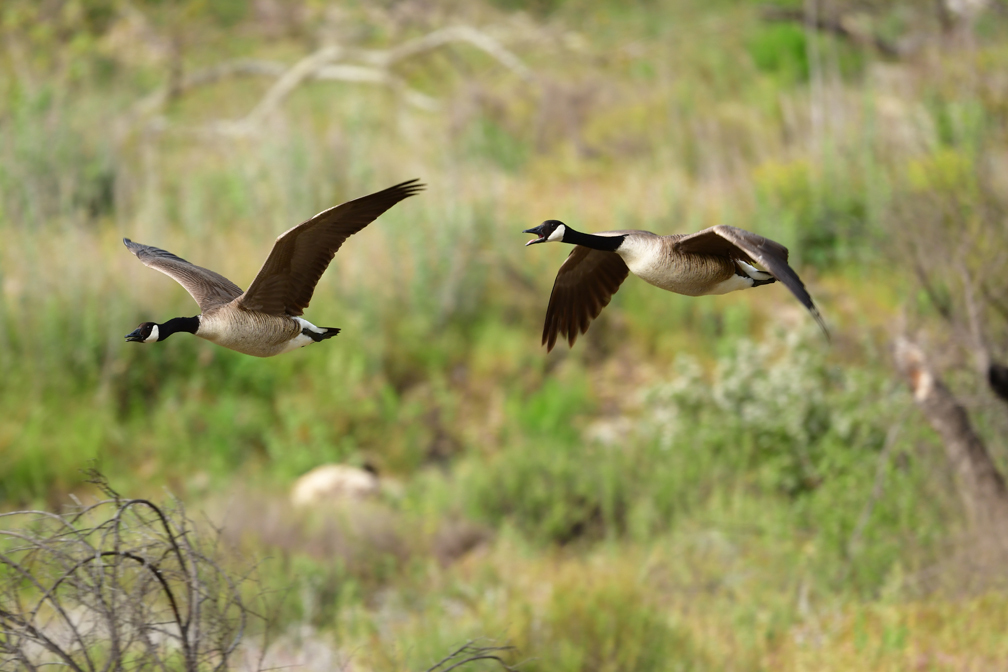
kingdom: Animalia
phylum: Chordata
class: Aves
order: Anseriformes
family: Anatidae
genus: Branta
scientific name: Branta canadensis
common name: Canada goose
